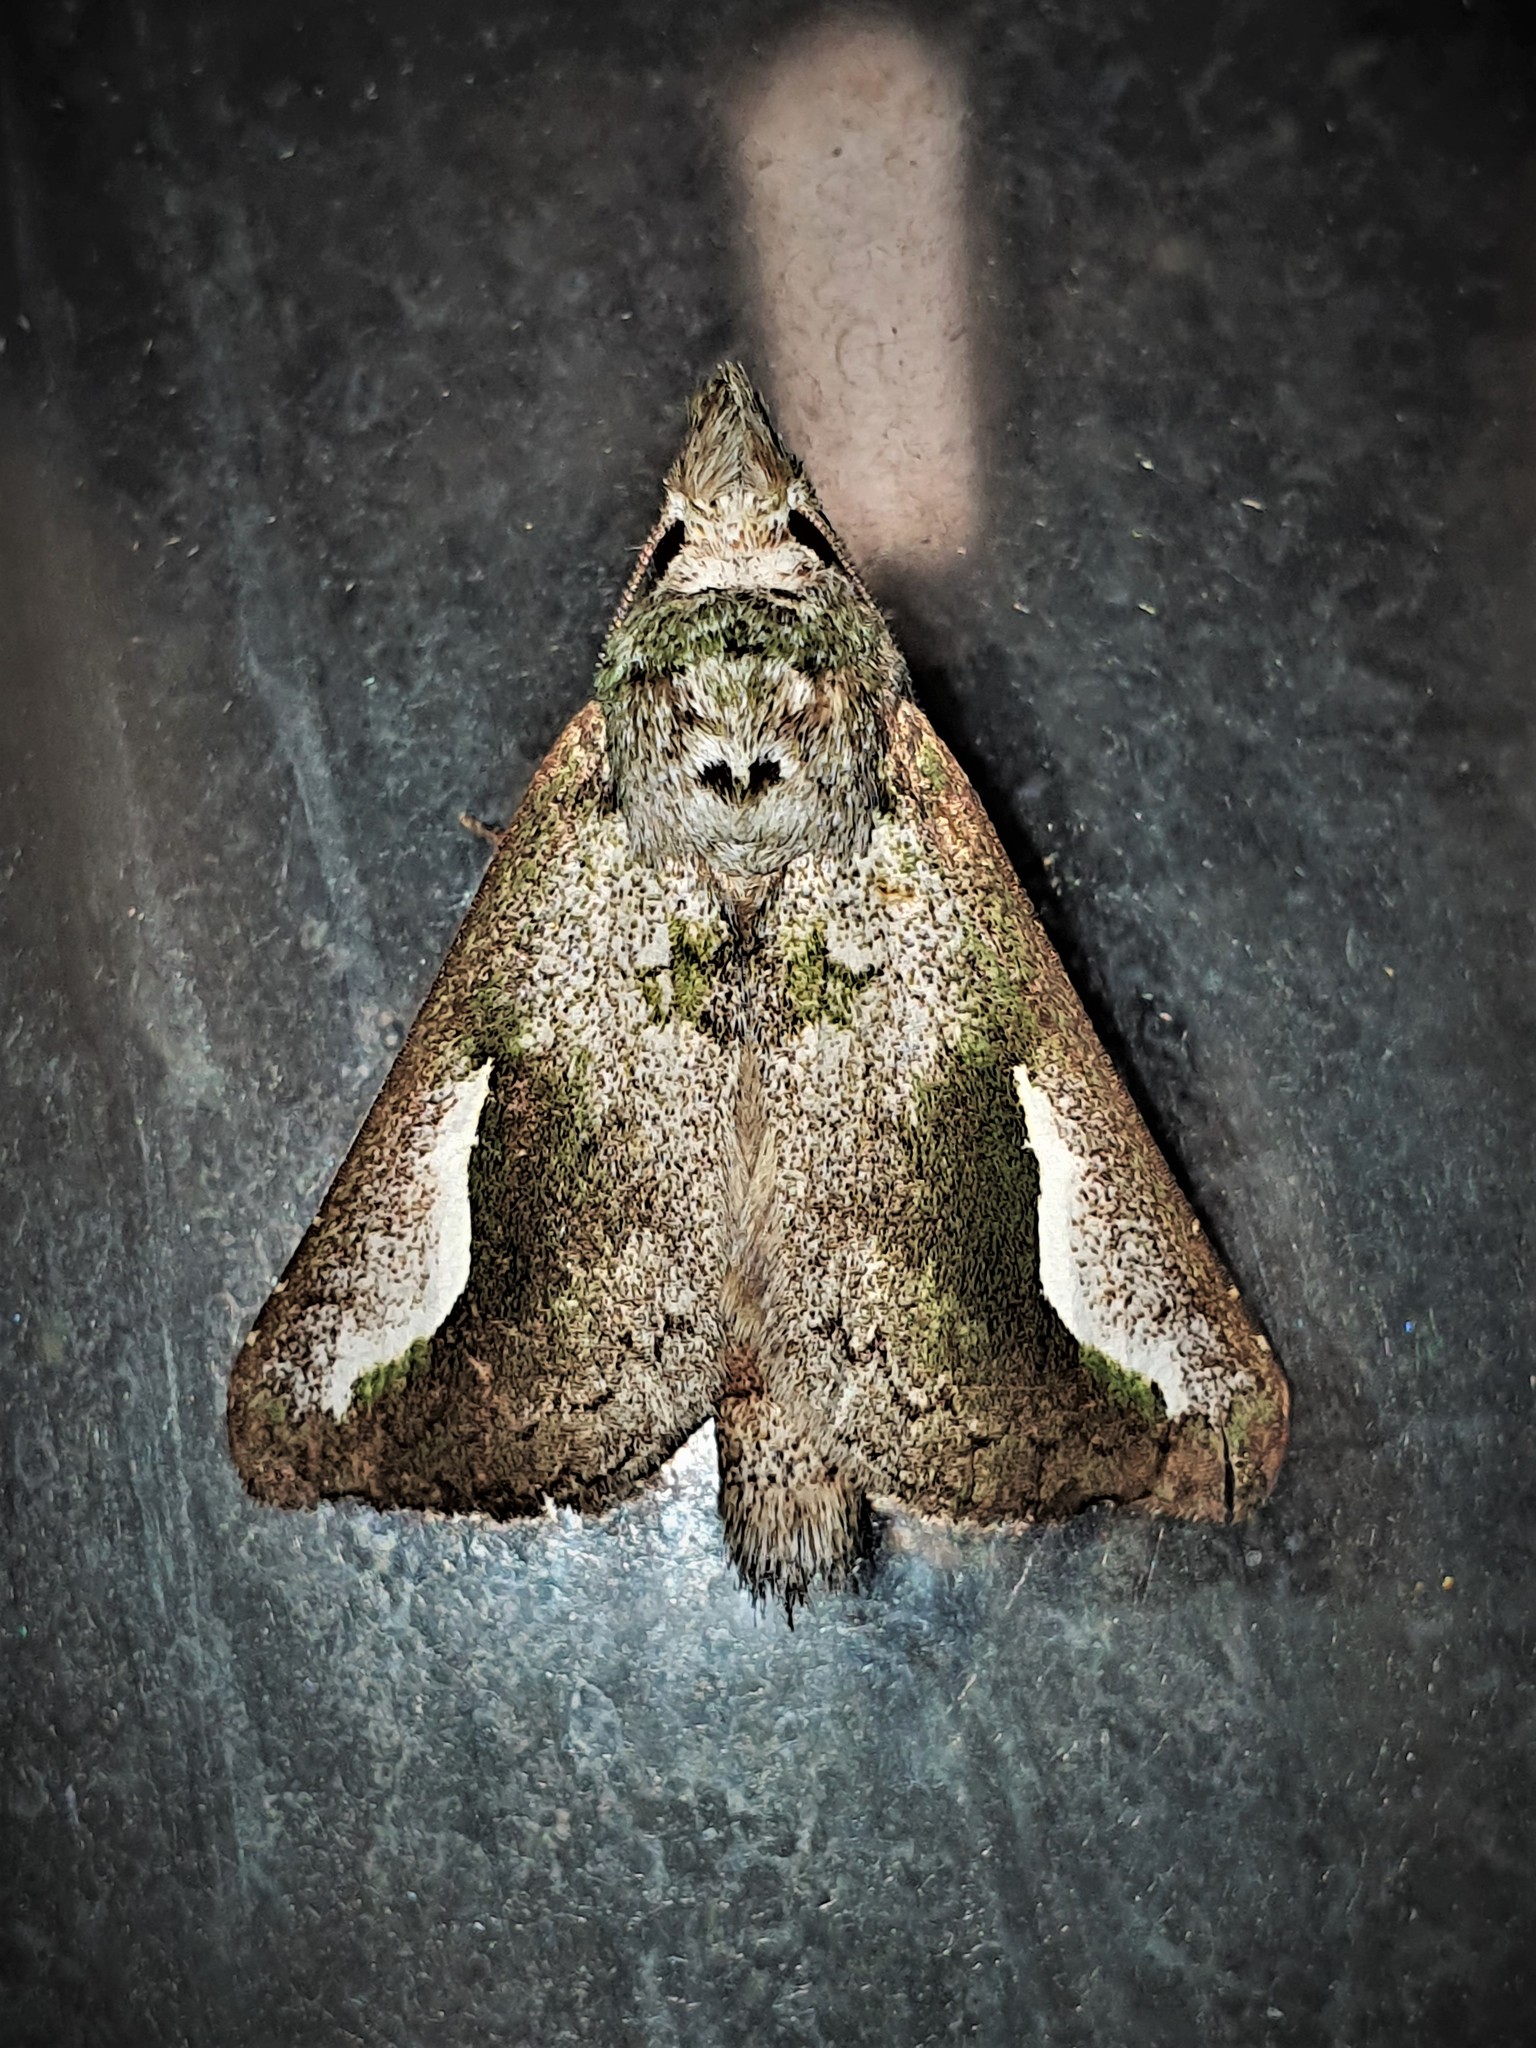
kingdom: Animalia
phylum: Arthropoda
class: Insecta
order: Lepidoptera
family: Notodontidae
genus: Strophocerus
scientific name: Strophocerus
